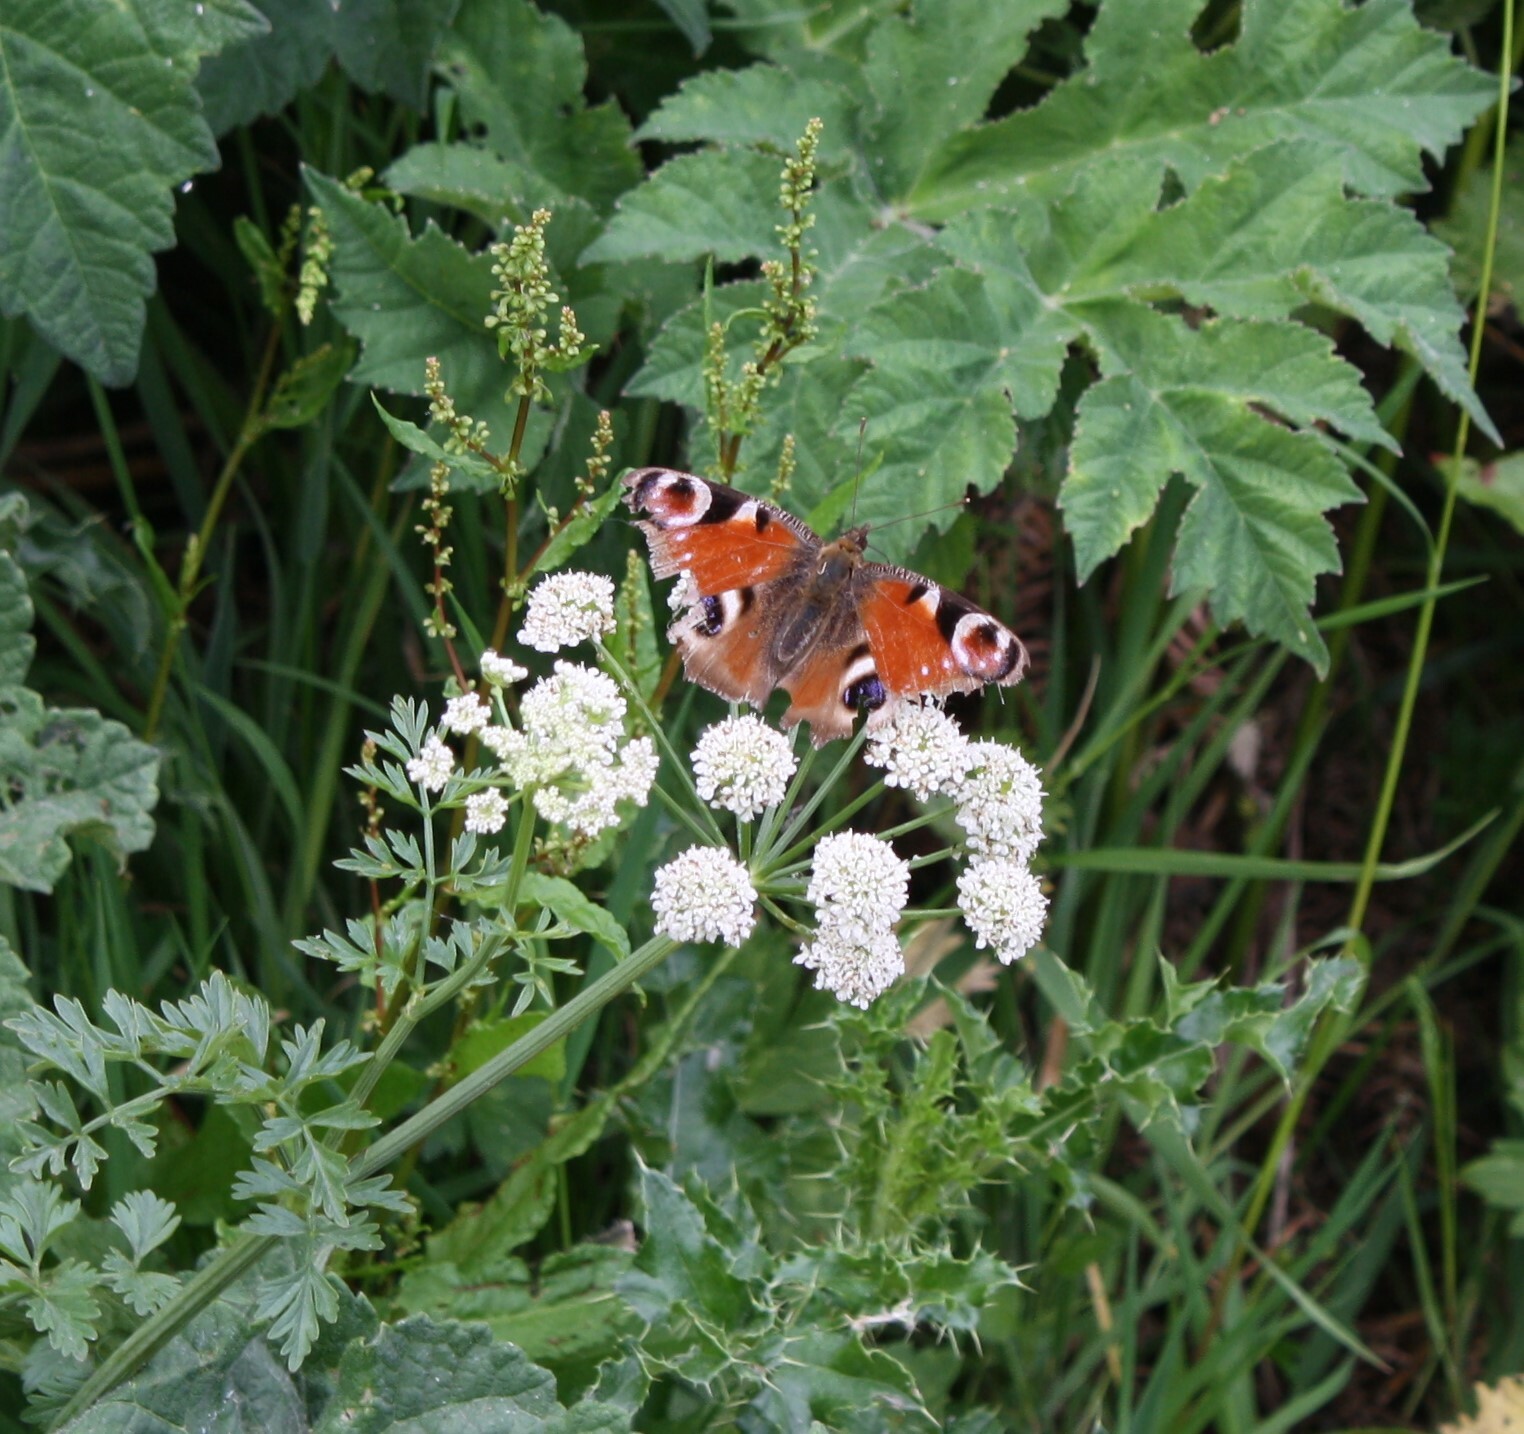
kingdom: Animalia
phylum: Arthropoda
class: Insecta
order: Lepidoptera
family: Nymphalidae
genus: Aglais
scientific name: Aglais io
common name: Peacock
